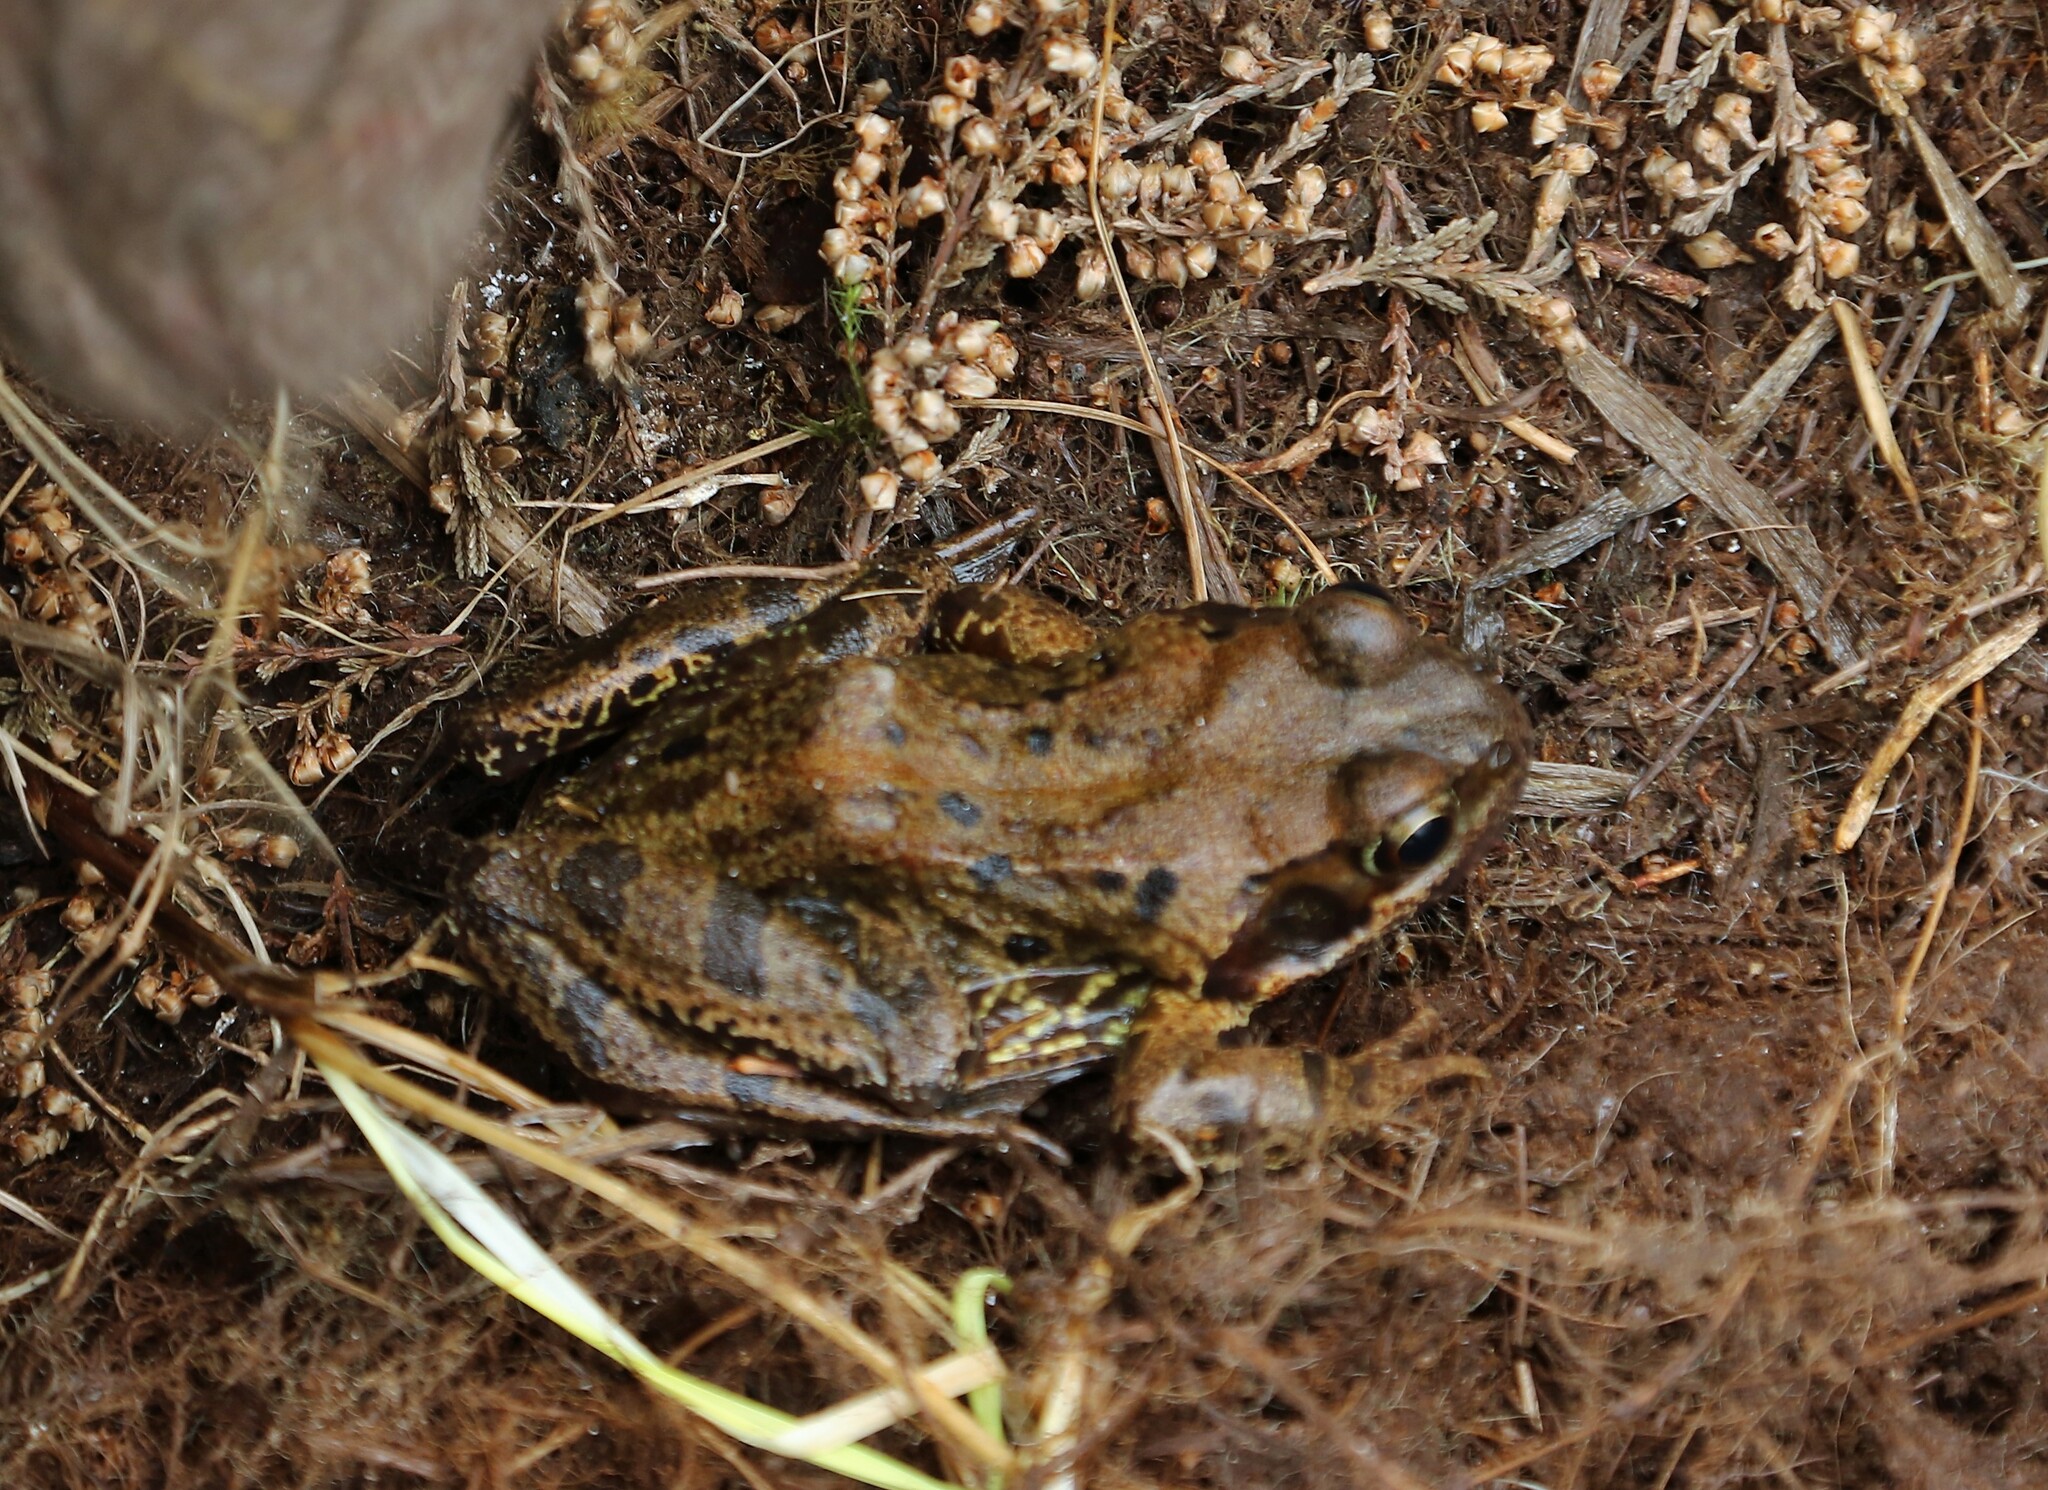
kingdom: Animalia
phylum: Chordata
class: Amphibia
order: Anura
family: Ranidae
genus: Rana
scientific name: Rana temporaria
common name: Common frog
